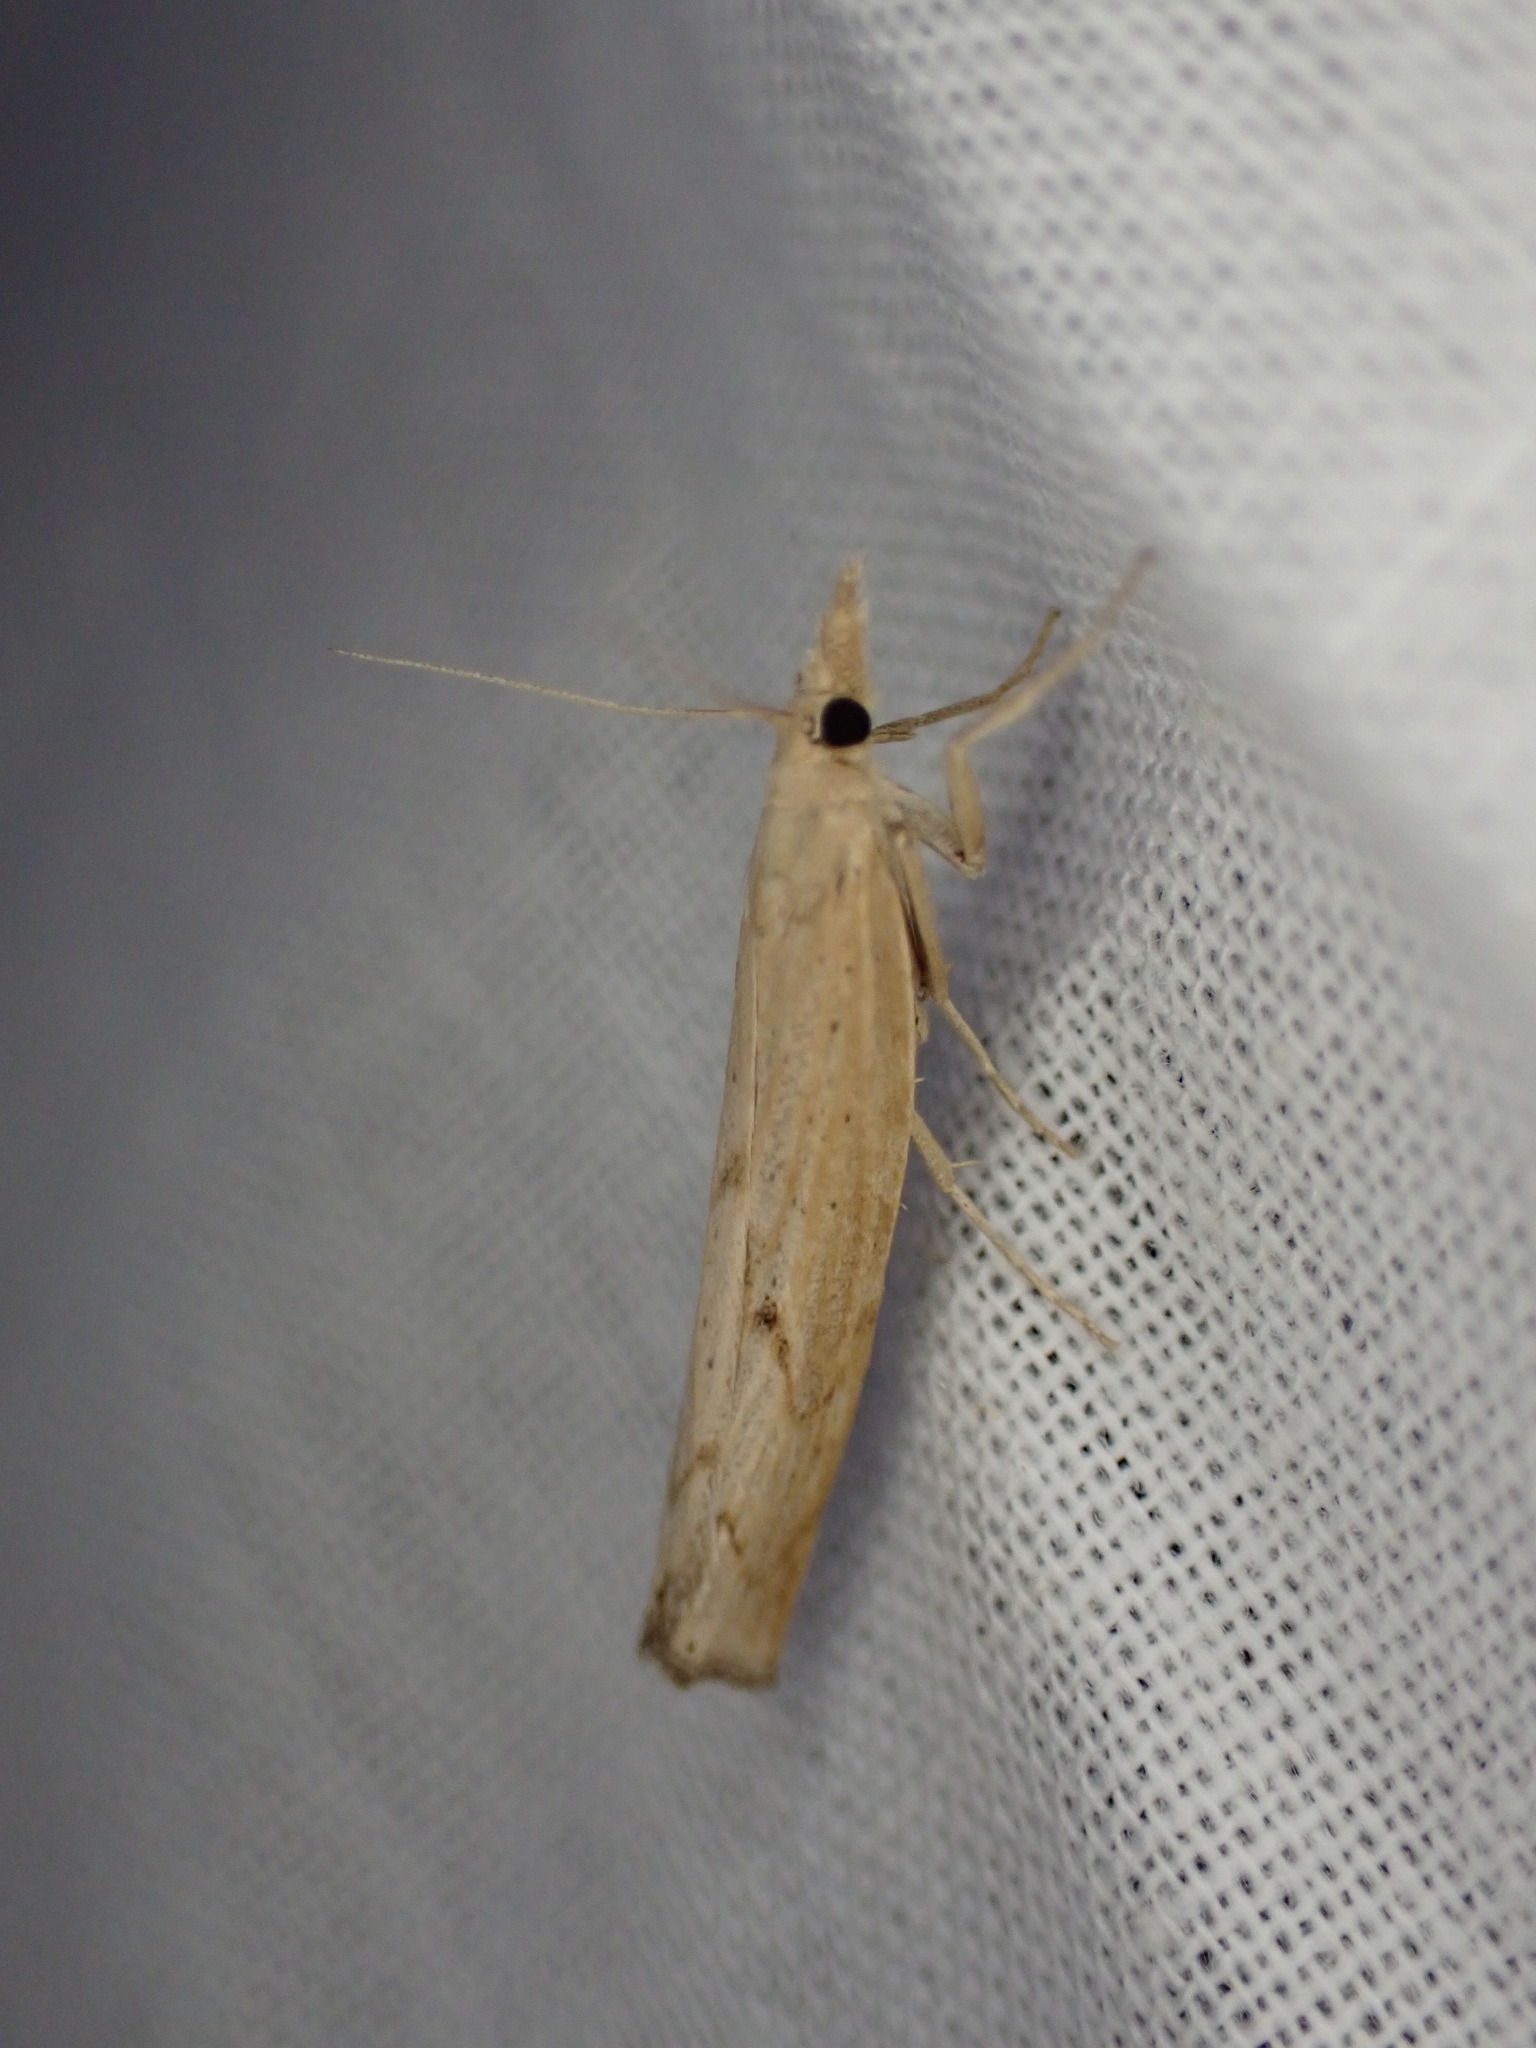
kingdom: Animalia
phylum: Arthropoda
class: Insecta
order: Lepidoptera
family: Crambidae
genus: Pediasia
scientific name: Pediasia contaminella
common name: Waste grass-veneer
